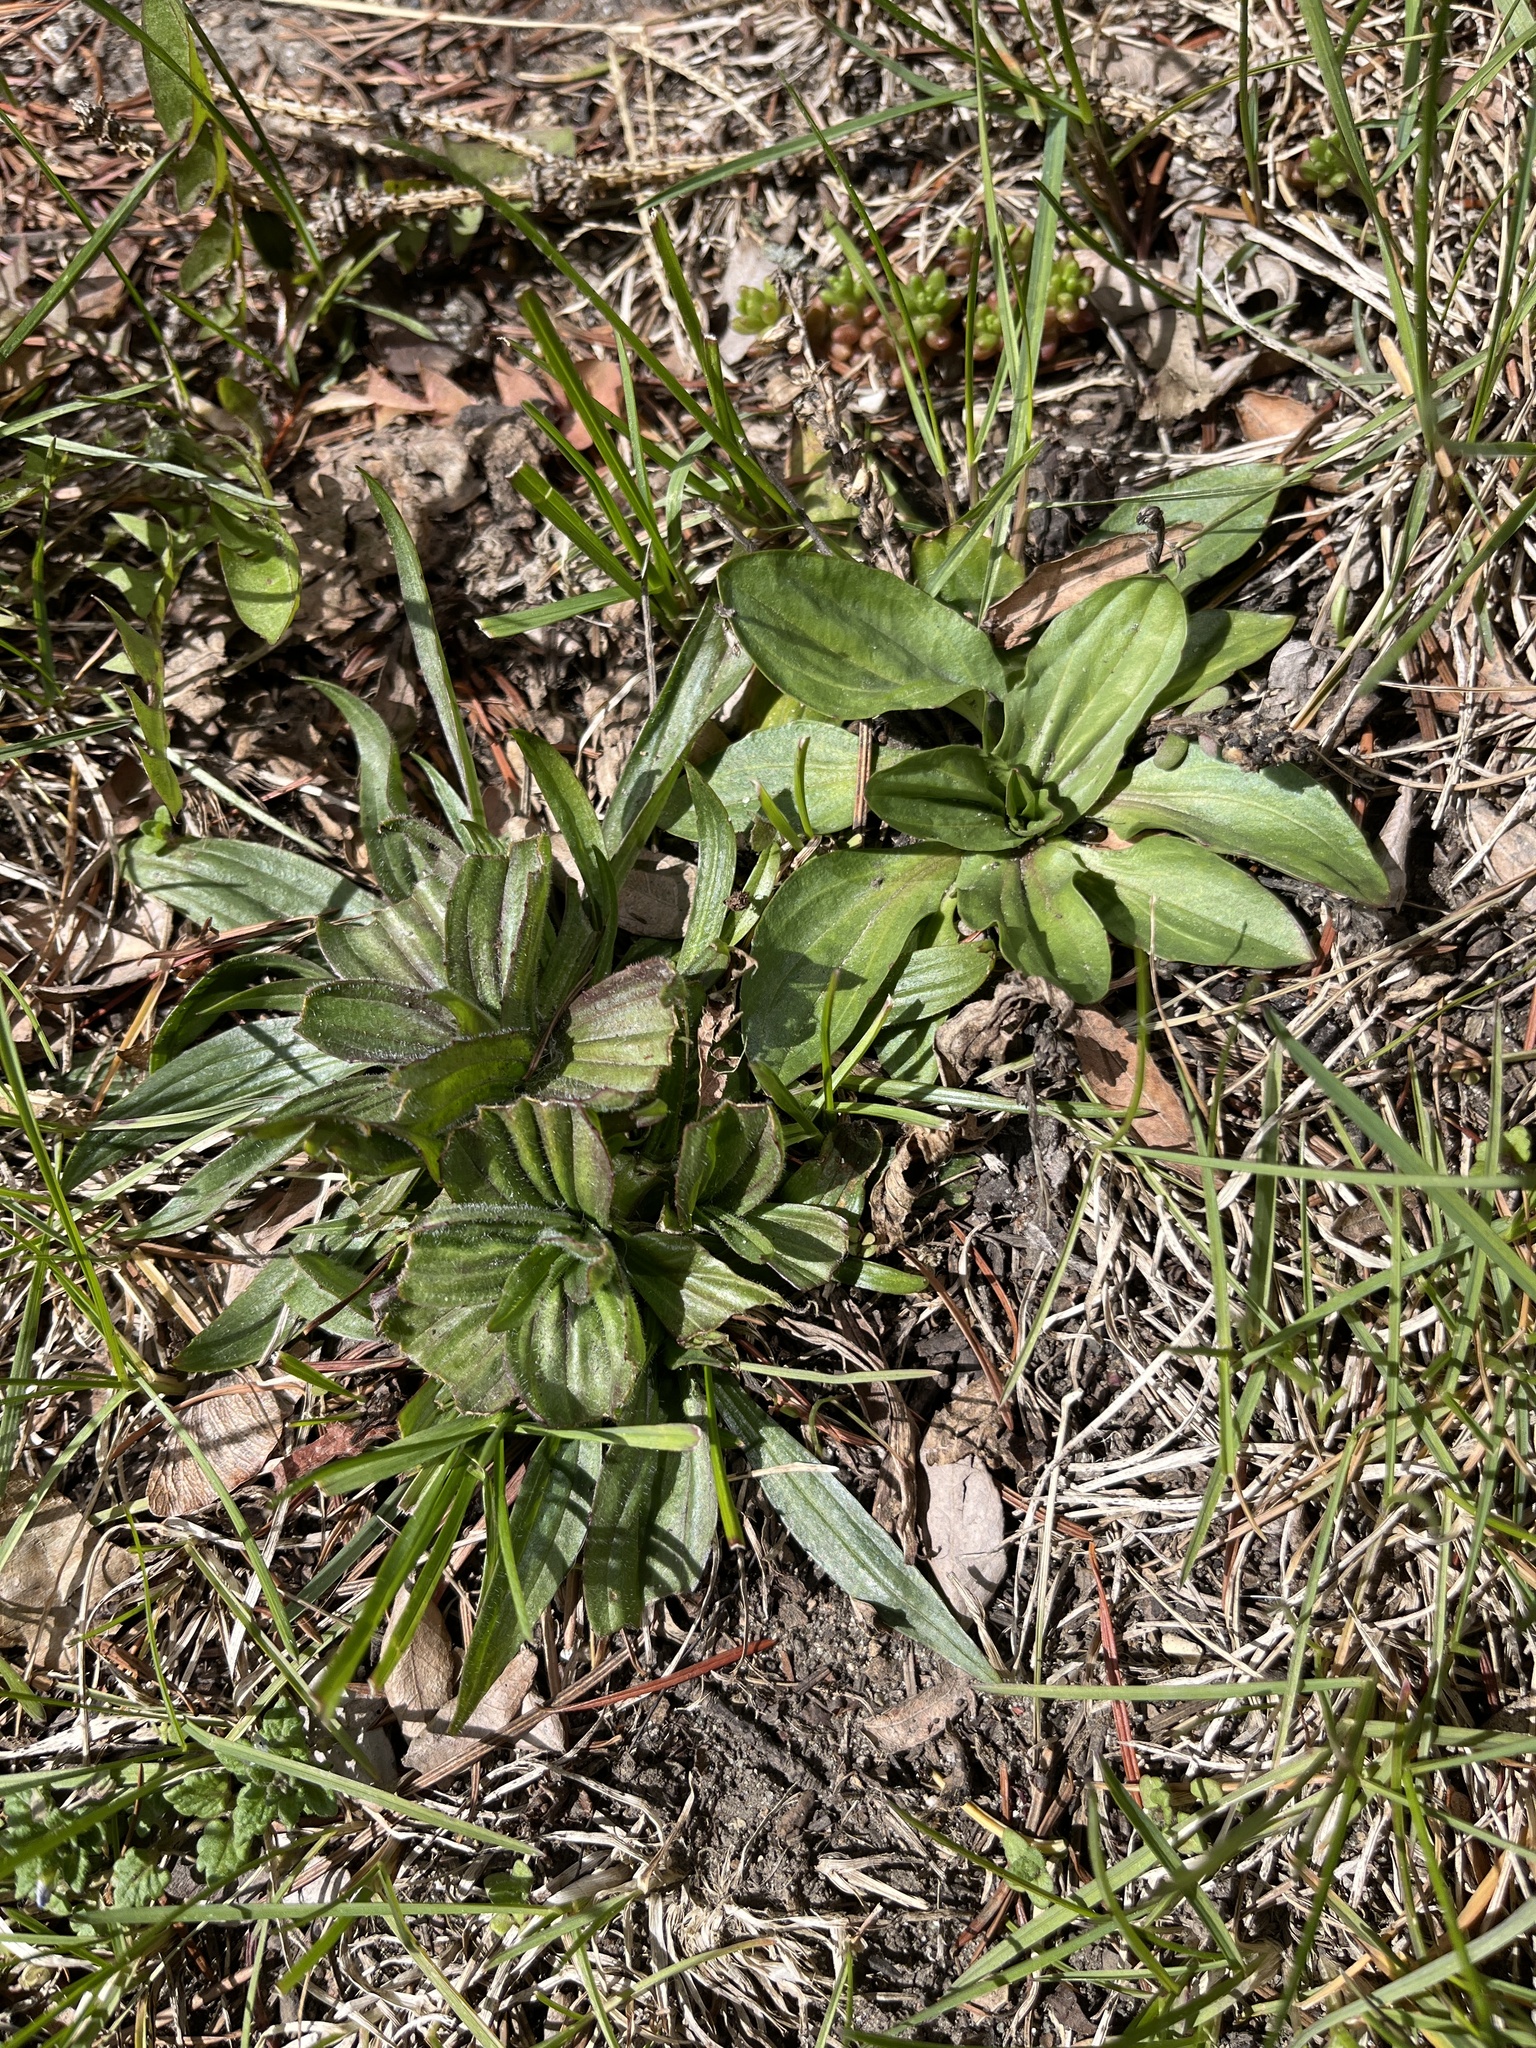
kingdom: Plantae
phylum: Tracheophyta
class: Magnoliopsida
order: Lamiales
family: Plantaginaceae
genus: Plantago
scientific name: Plantago lanceolata
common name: Ribwort plantain
